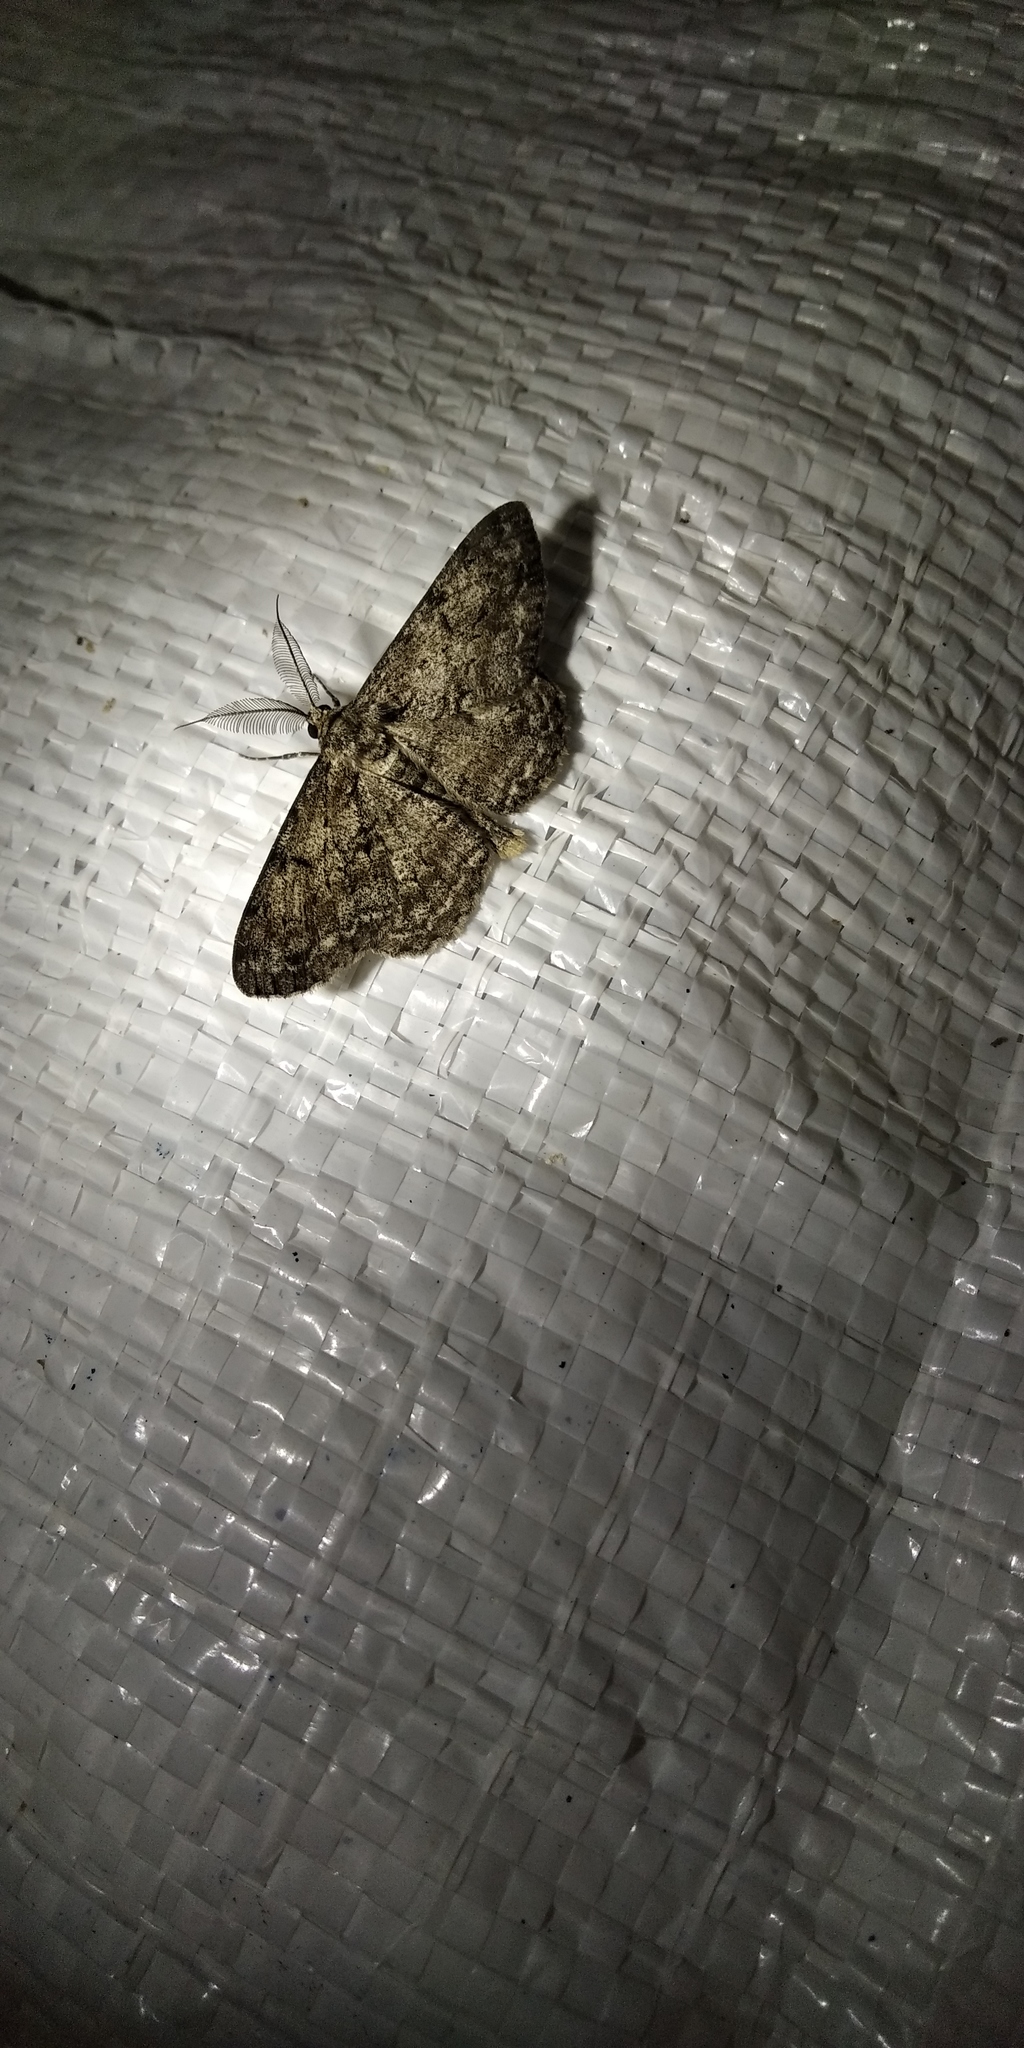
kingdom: Animalia
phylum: Arthropoda
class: Insecta
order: Lepidoptera
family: Geometridae
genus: Hypomecis
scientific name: Hypomecis roboraria
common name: Great oak beauty
